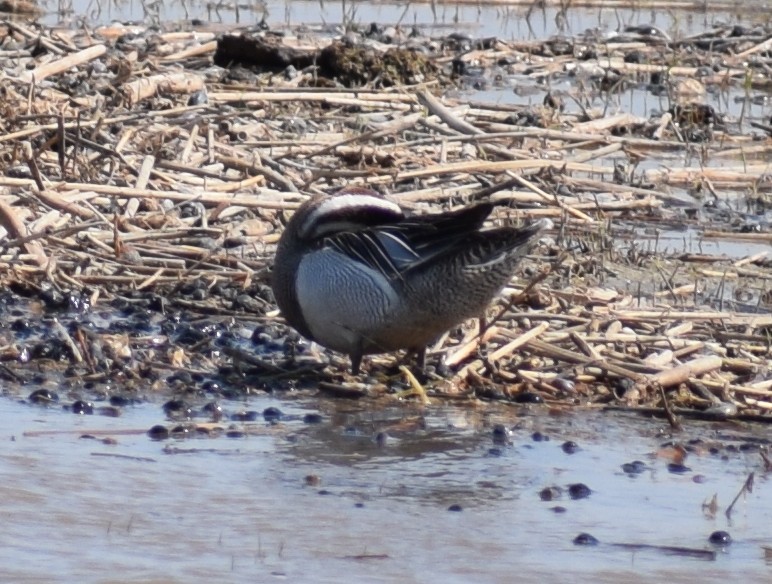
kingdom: Animalia
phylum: Chordata
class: Aves
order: Anseriformes
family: Anatidae
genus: Spatula
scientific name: Spatula querquedula
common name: Garganey
